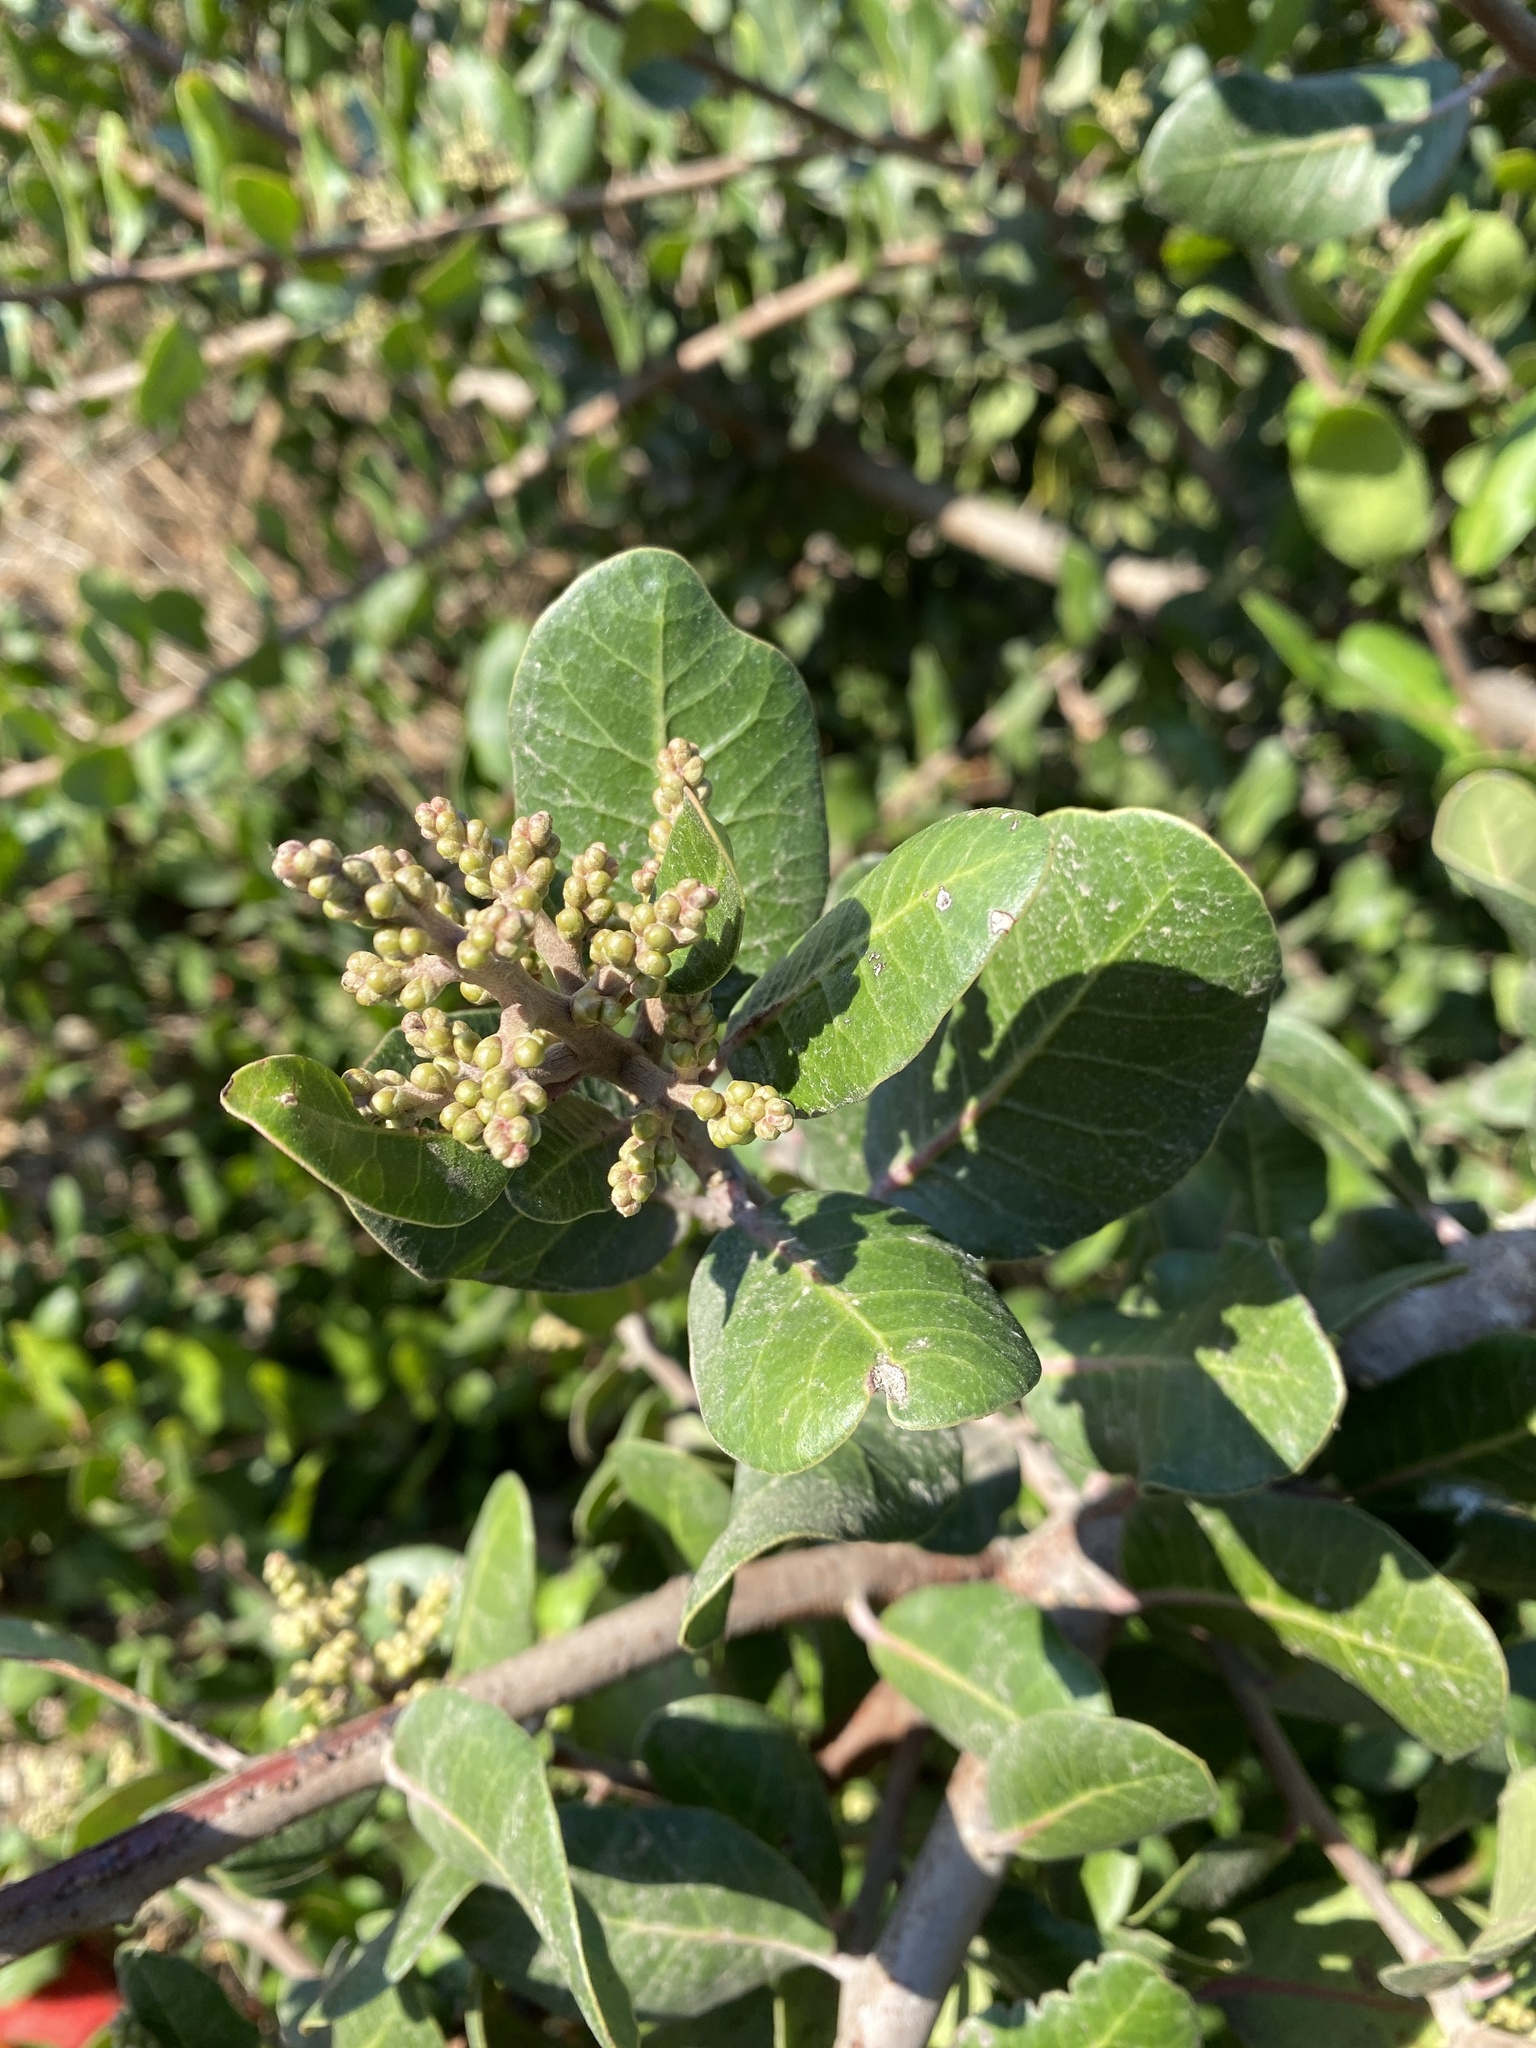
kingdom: Plantae
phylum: Tracheophyta
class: Magnoliopsida
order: Sapindales
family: Anacardiaceae
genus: Rhus
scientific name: Rhus integrifolia
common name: Lemonade sumac
